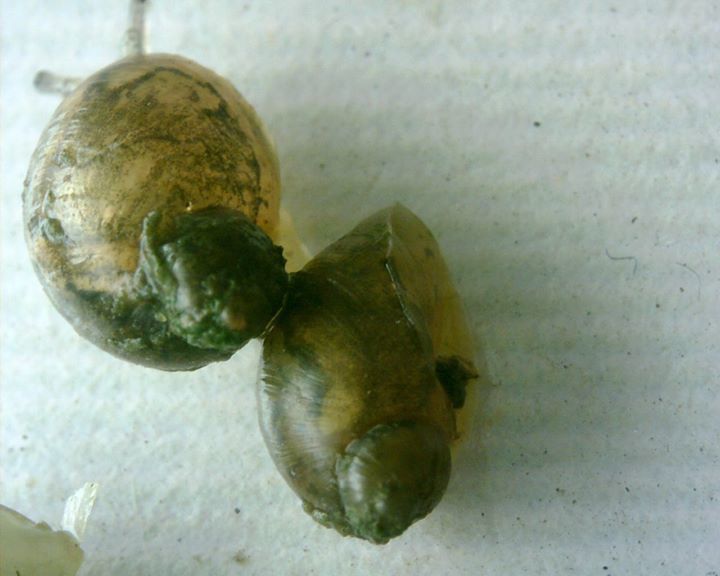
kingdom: Animalia
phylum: Mollusca
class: Gastropoda
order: Stylommatophora
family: Succineidae
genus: Novisuccinea
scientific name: Novisuccinea lyrata
